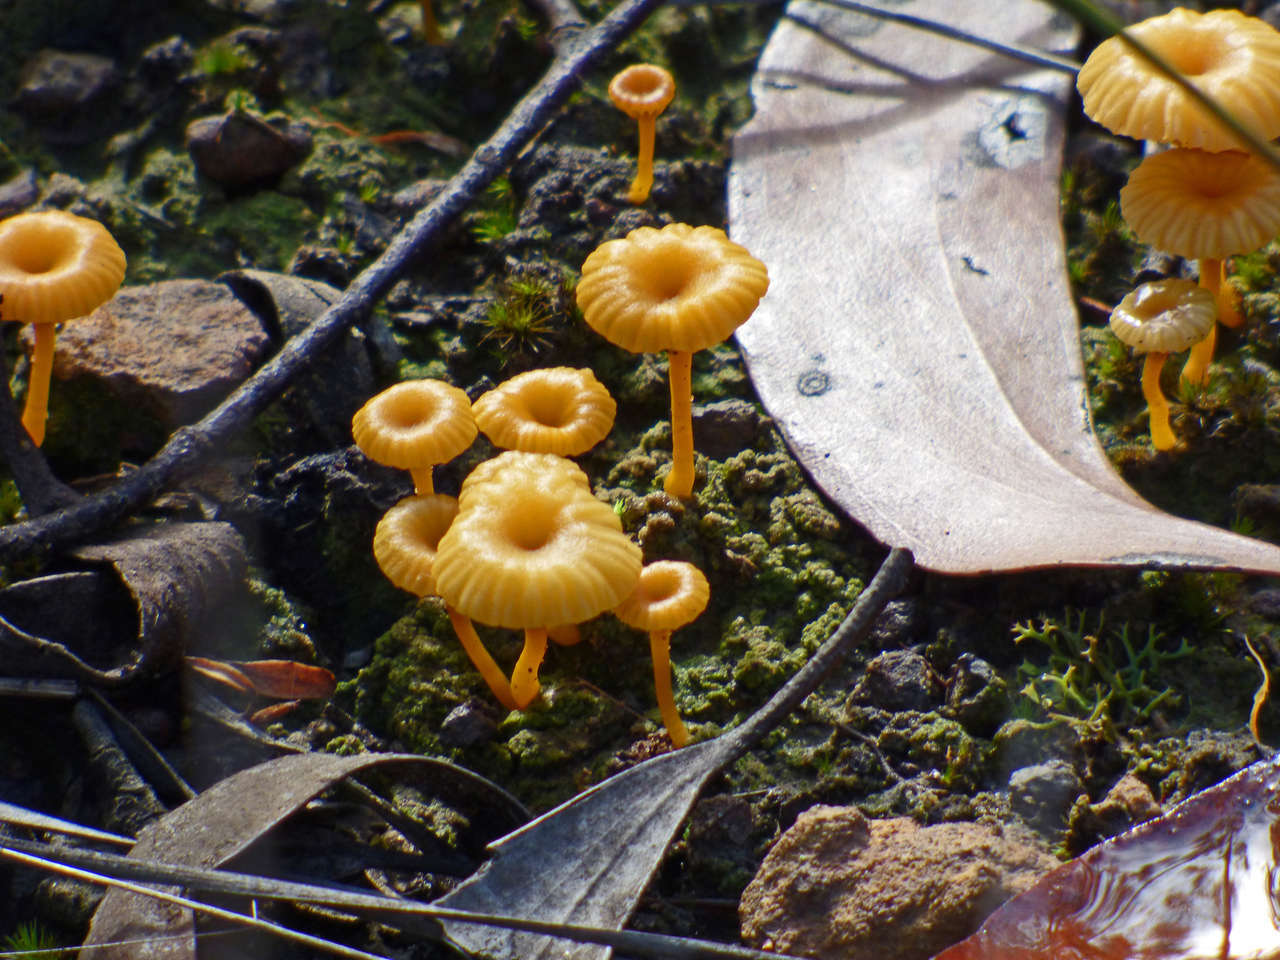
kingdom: Fungi
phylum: Basidiomycota
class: Agaricomycetes
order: Agaricales
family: Hygrophoraceae
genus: Lichenomphalia
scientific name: Lichenomphalia chromacea
